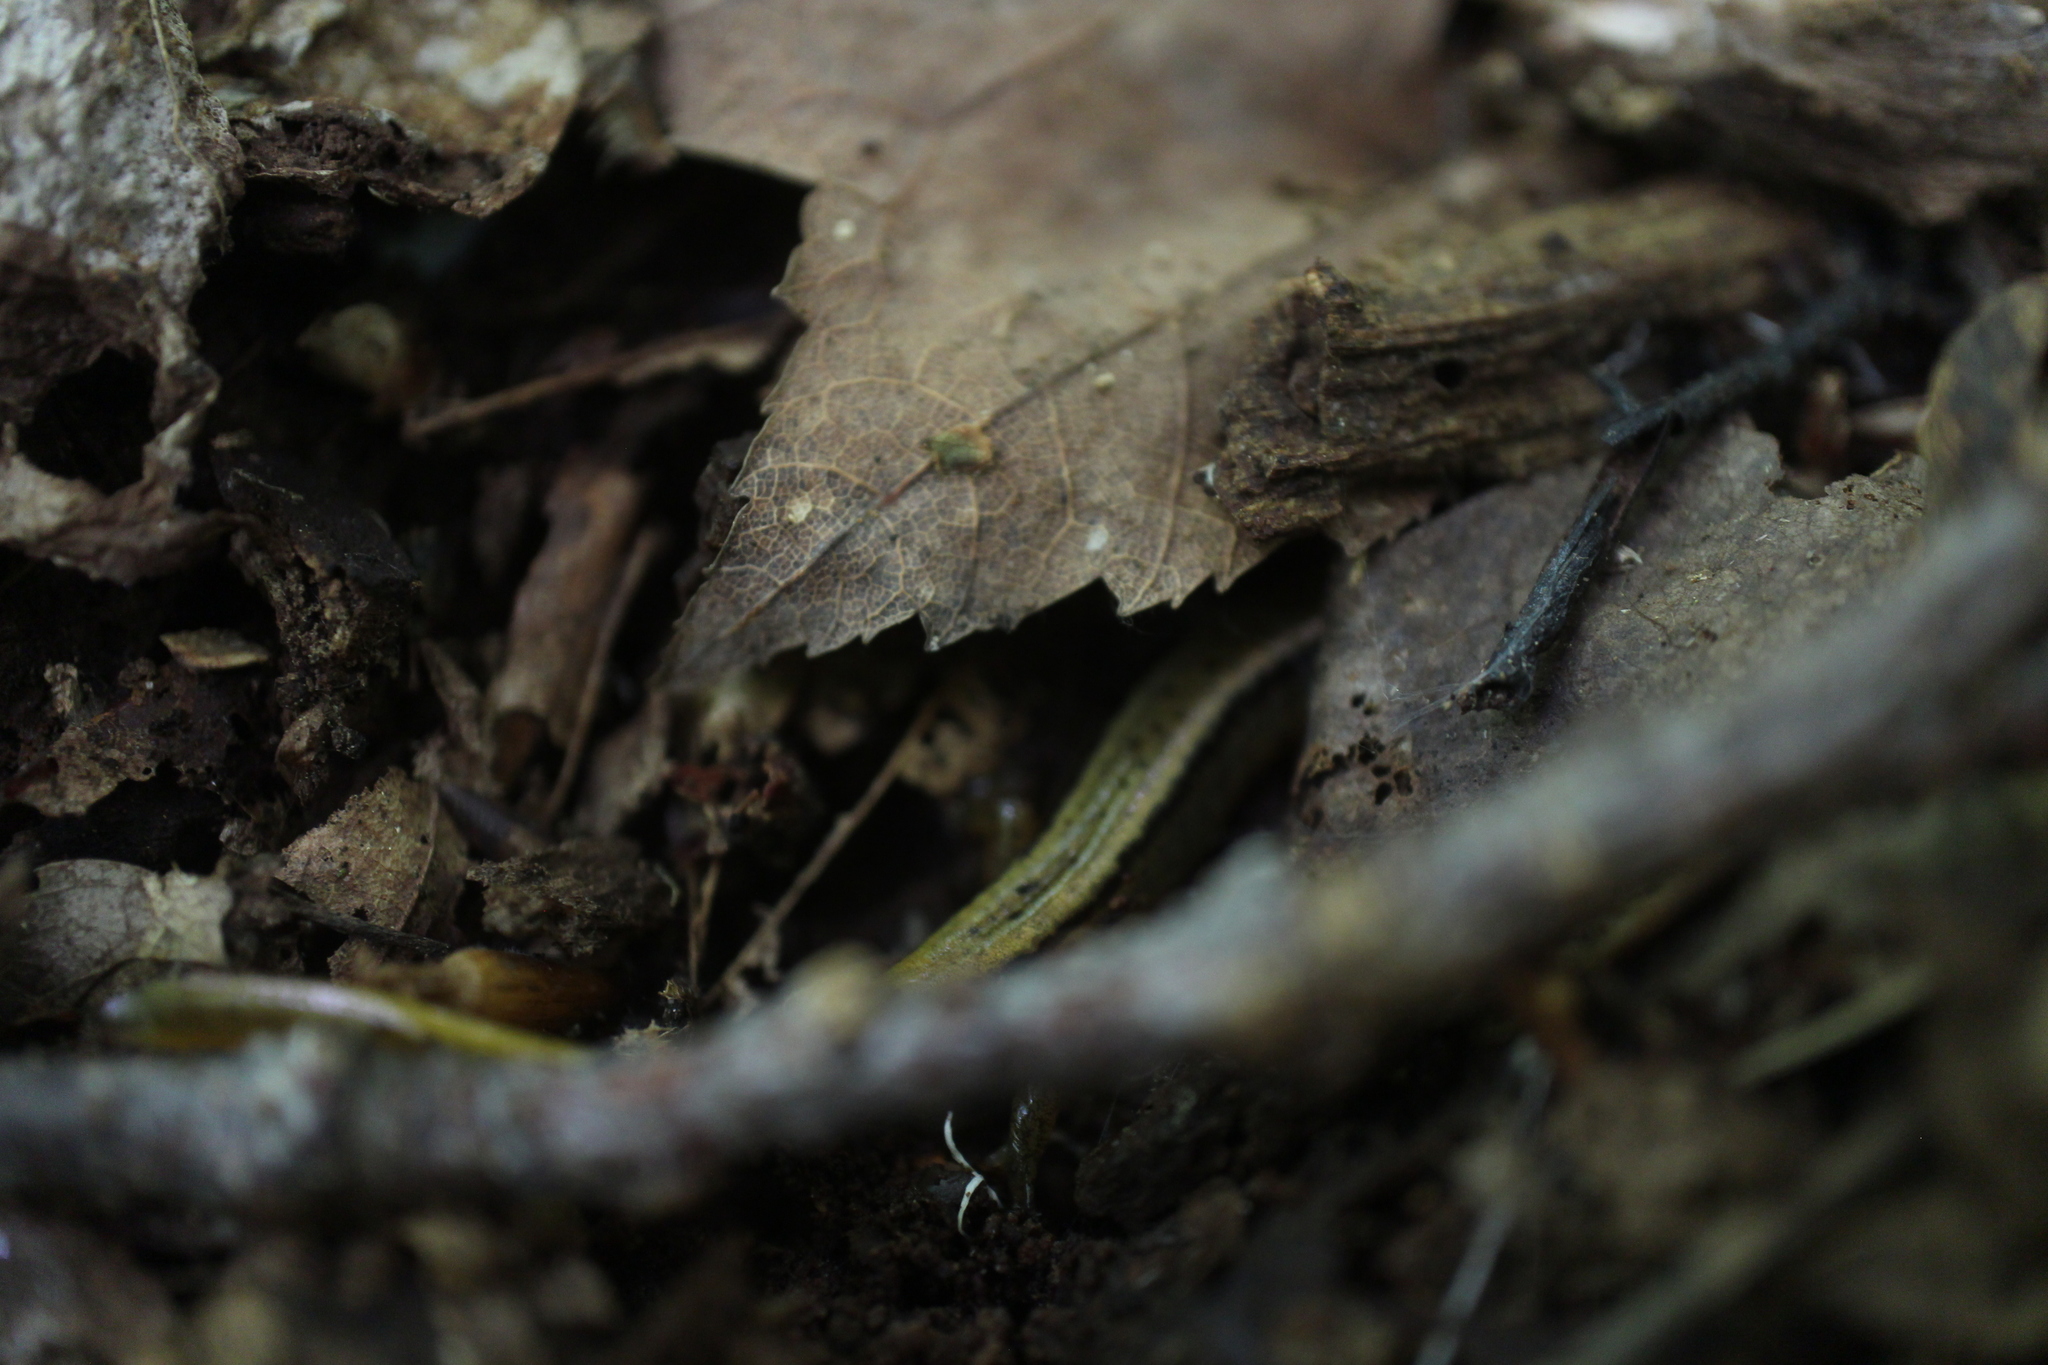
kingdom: Animalia
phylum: Chordata
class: Amphibia
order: Caudata
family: Plethodontidae
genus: Eurycea
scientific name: Eurycea bislineata
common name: Northern two-lined salamander
